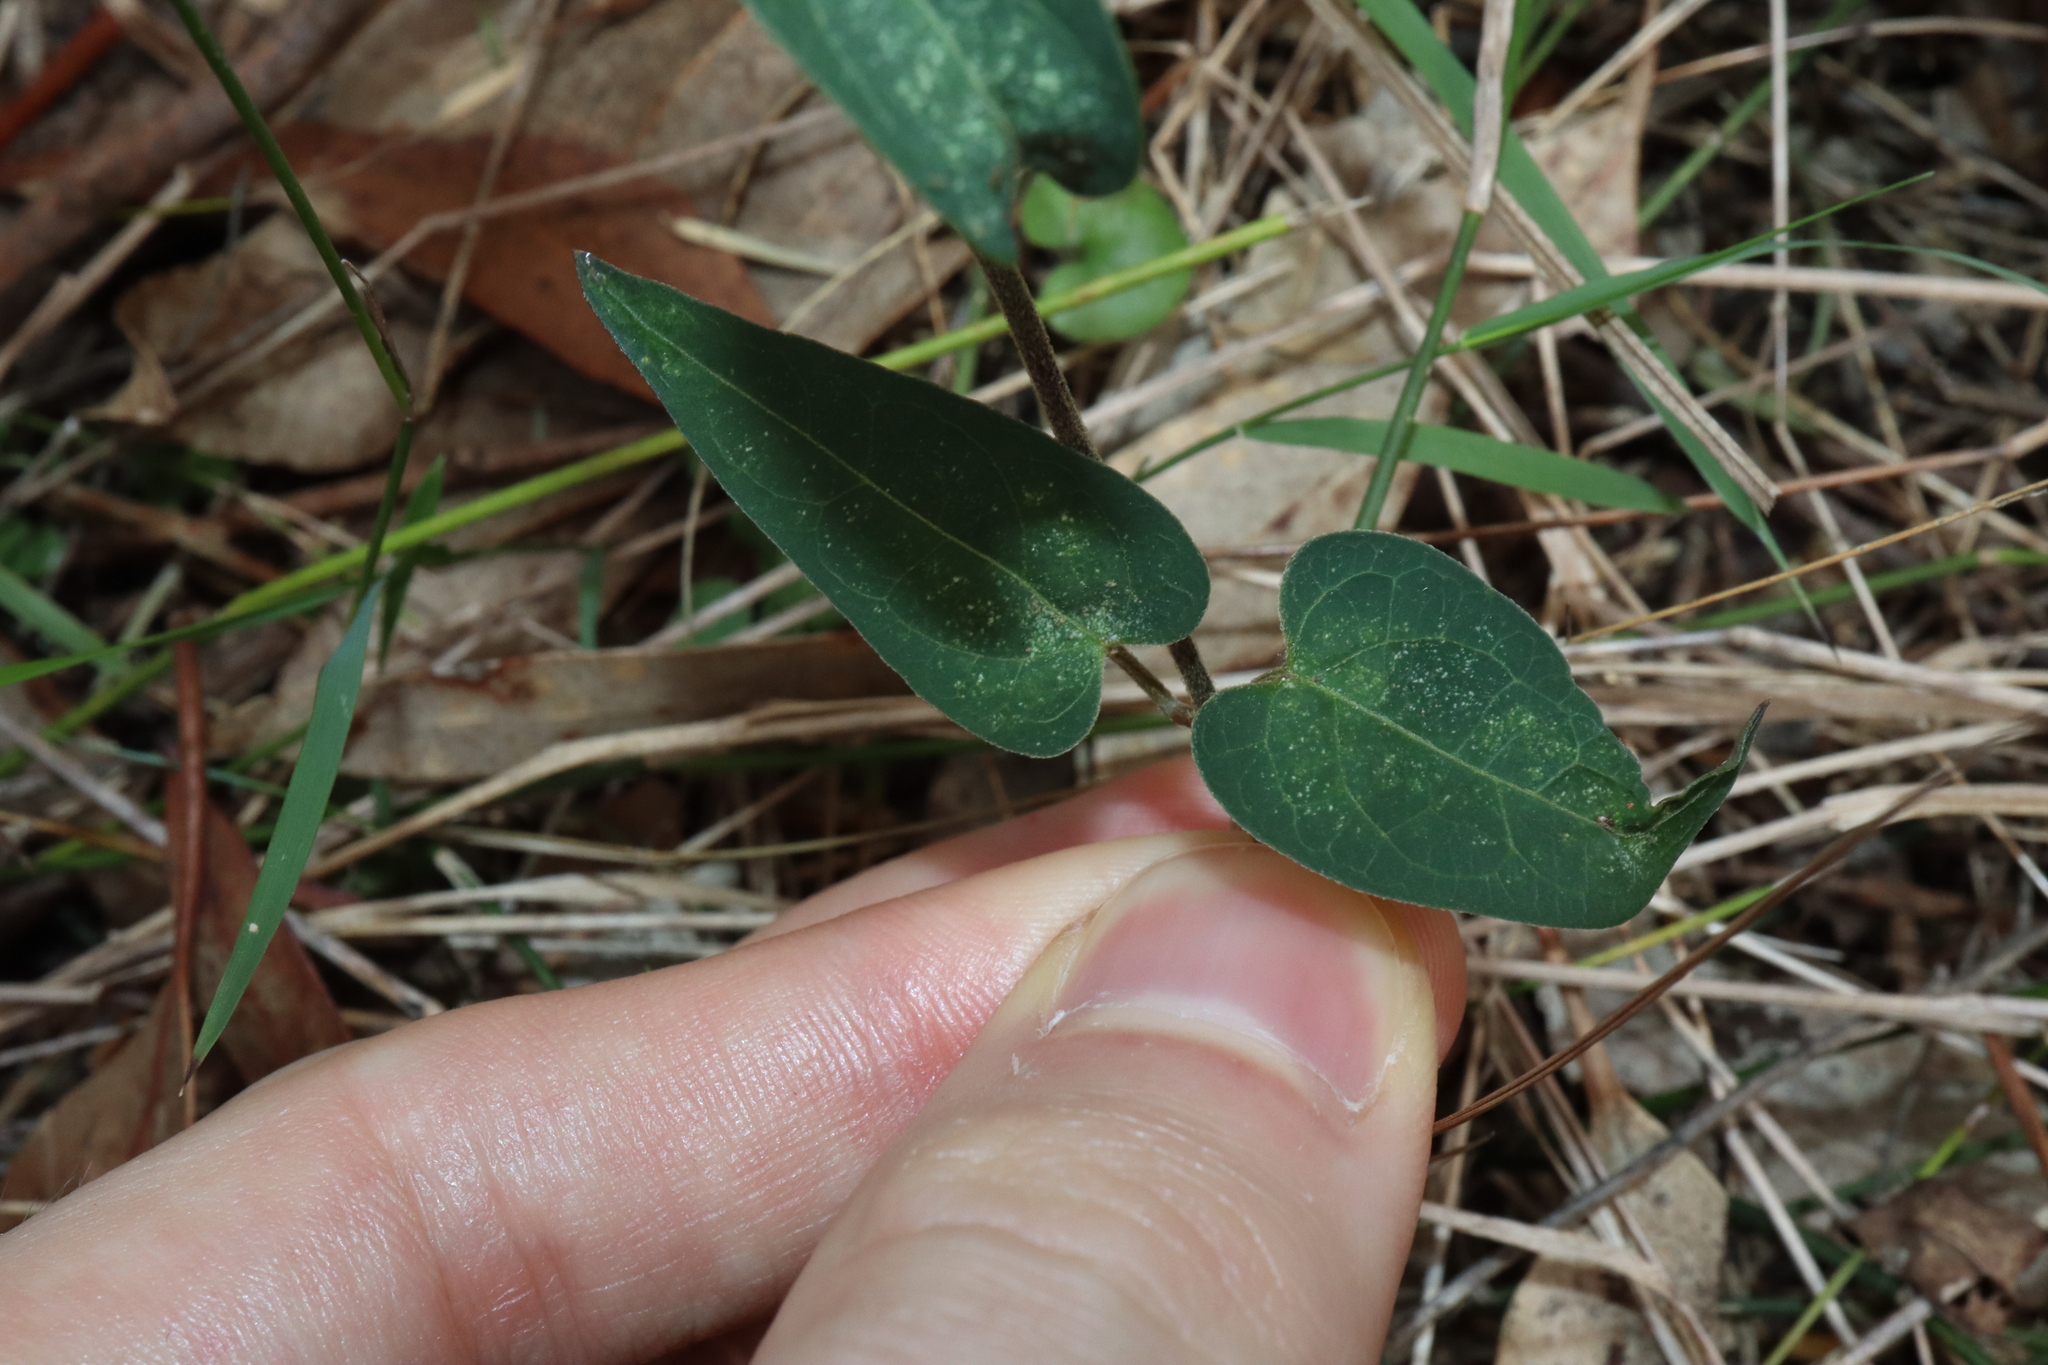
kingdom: Plantae
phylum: Tracheophyta
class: Magnoliopsida
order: Gentianales
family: Apocynaceae
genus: Vincetoxicum
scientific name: Vincetoxicum woollsii
